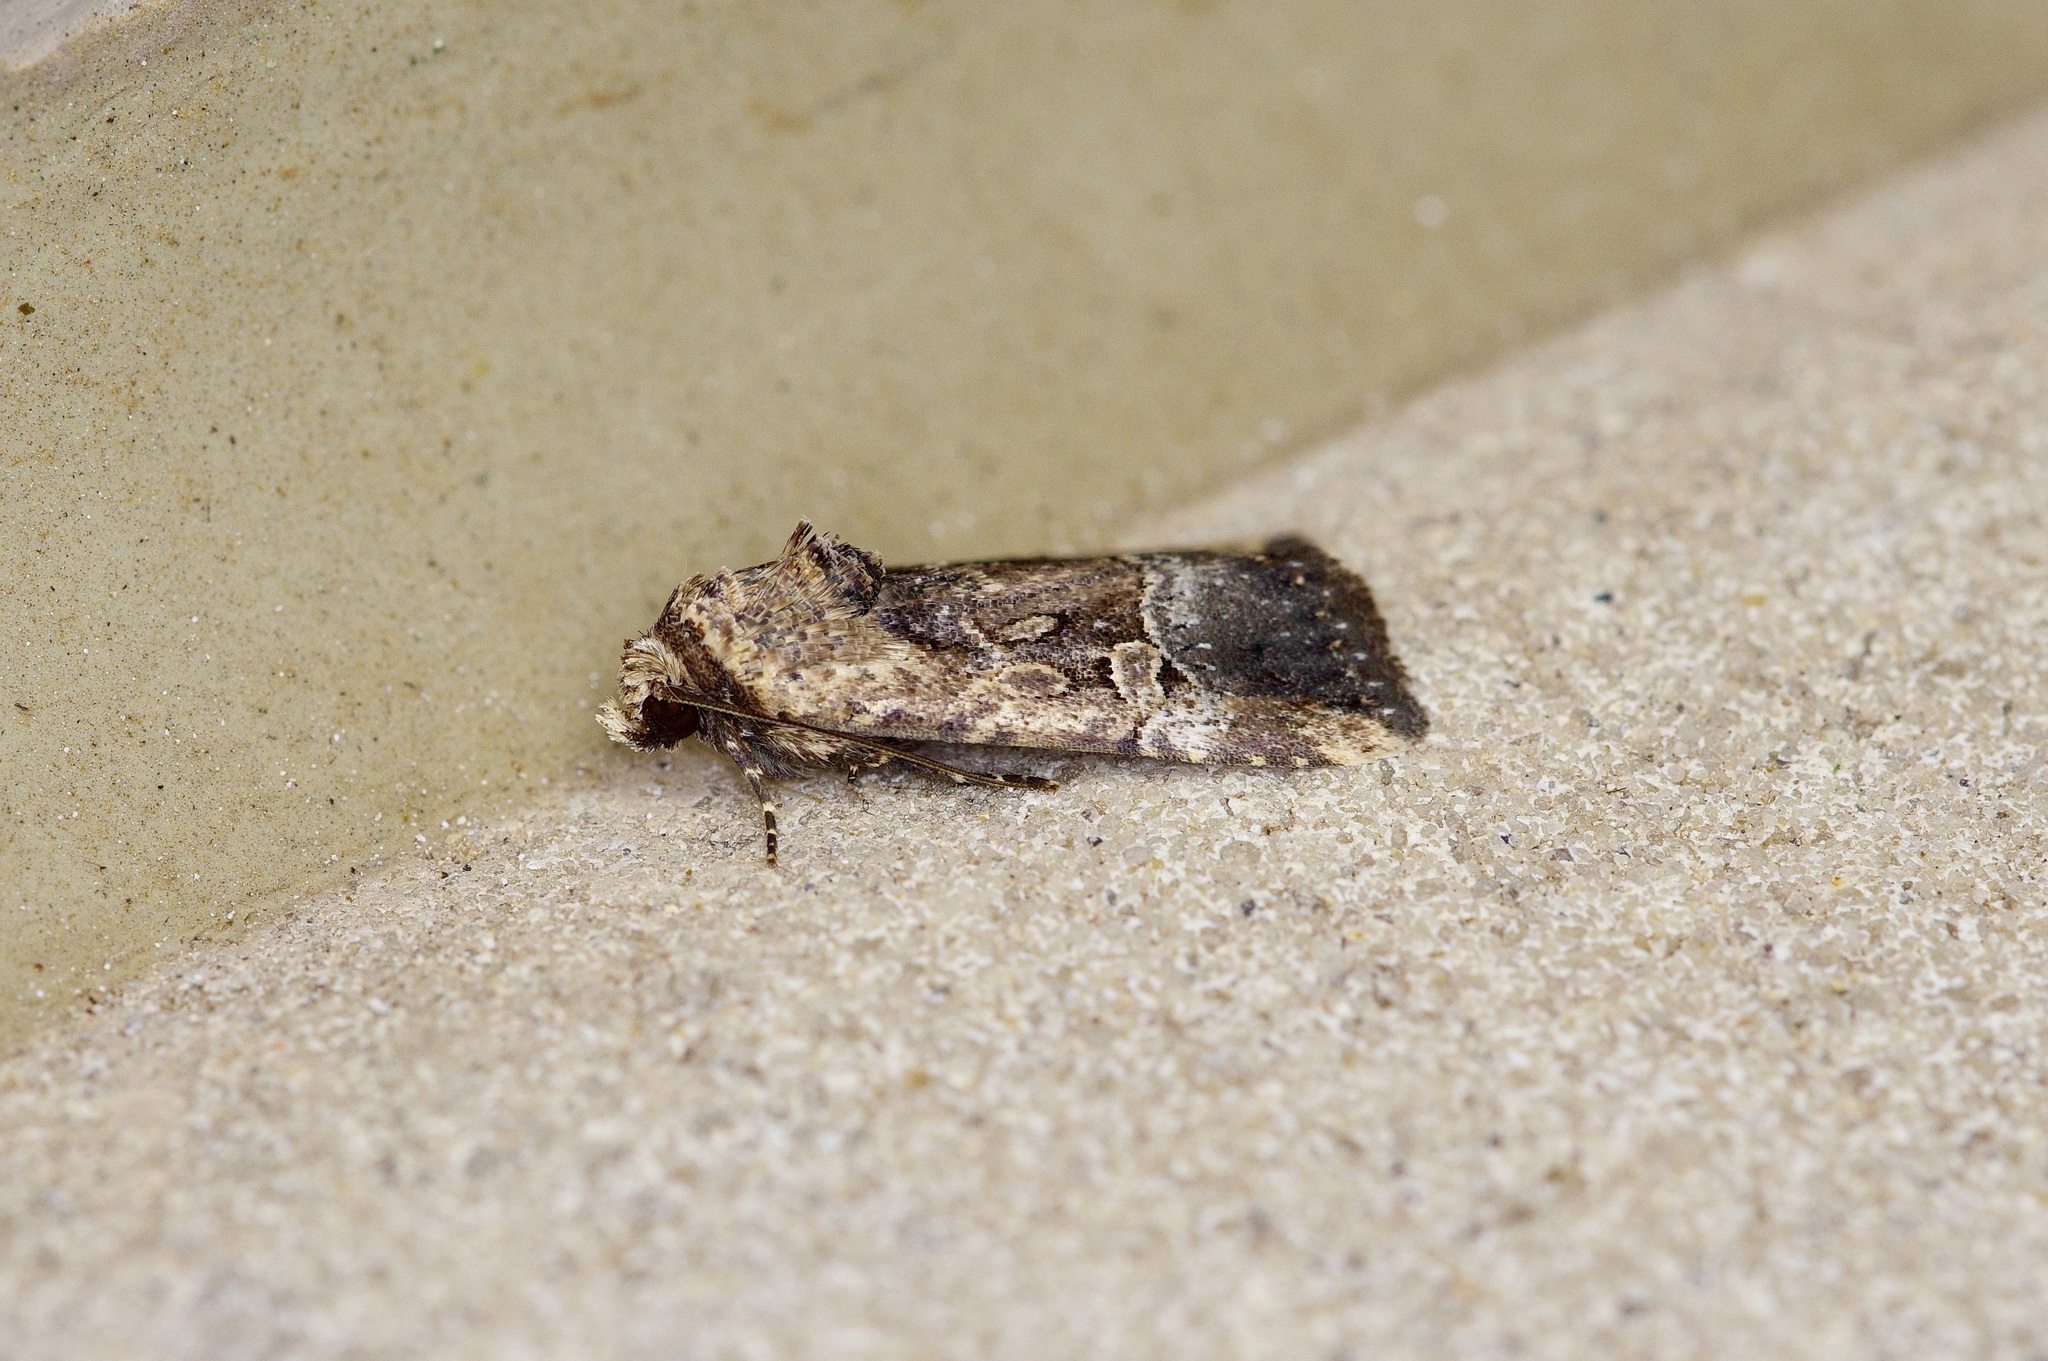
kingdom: Animalia
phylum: Arthropoda
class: Insecta
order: Lepidoptera
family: Noctuidae
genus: Elaphria
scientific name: Elaphria chalcedonia
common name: Chalcedony midget
